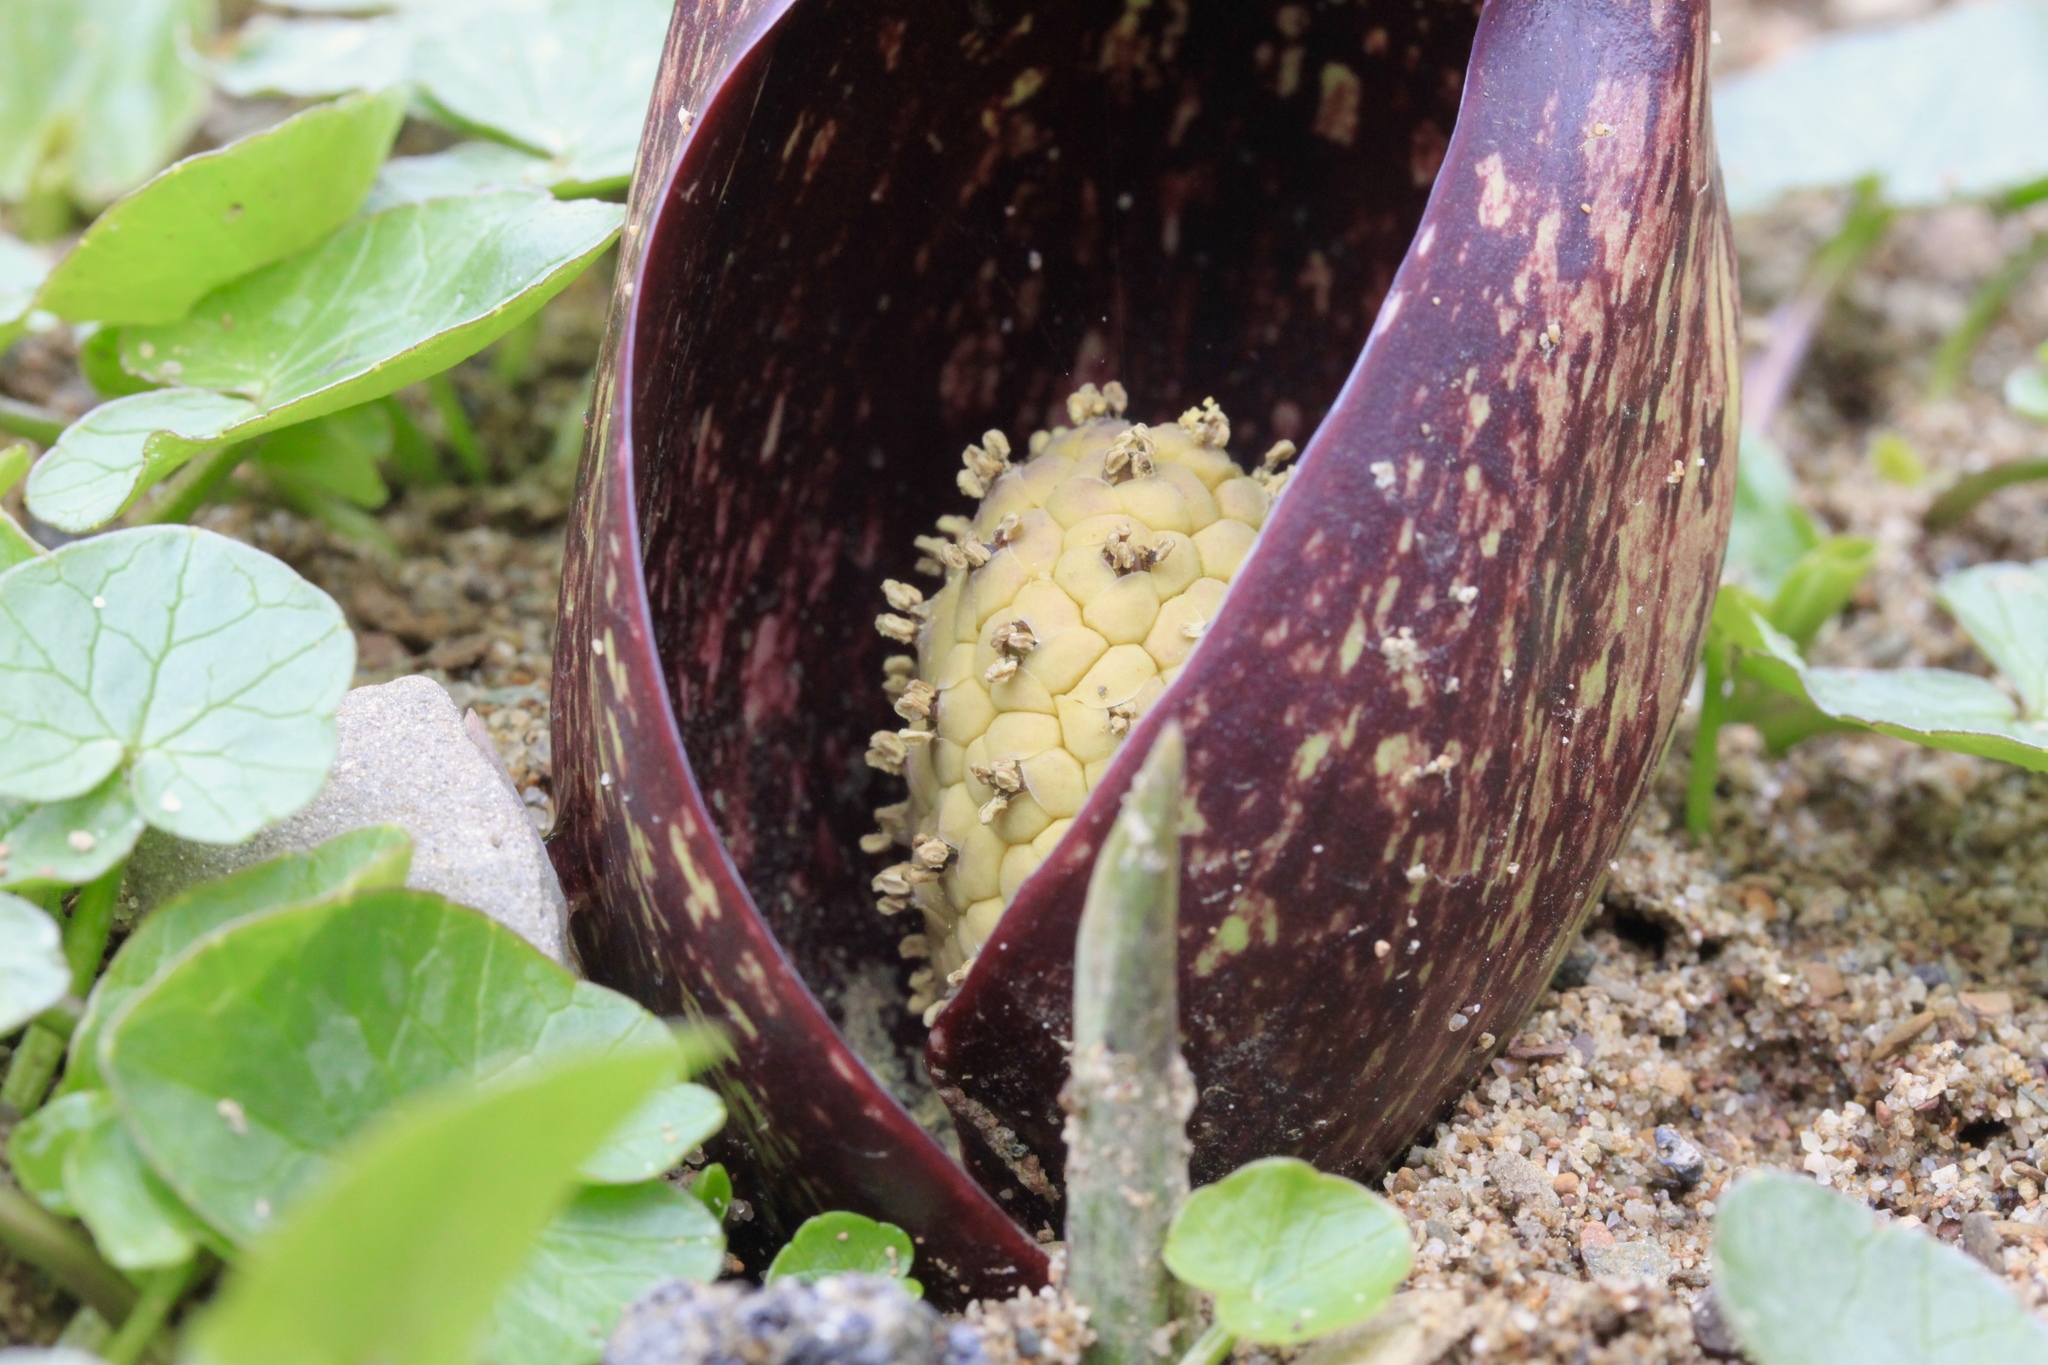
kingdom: Plantae
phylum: Tracheophyta
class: Liliopsida
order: Alismatales
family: Araceae
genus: Symplocarpus
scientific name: Symplocarpus foetidus
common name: Eastern skunk cabbage
